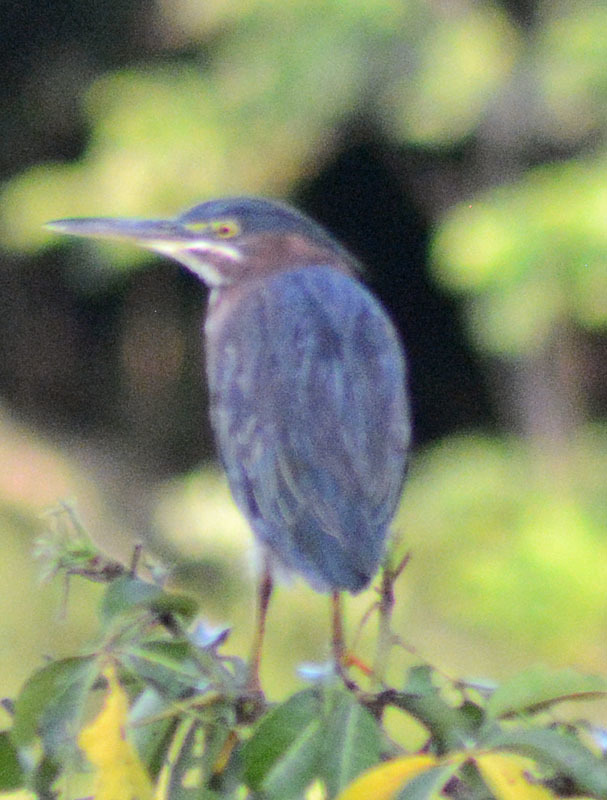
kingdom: Animalia
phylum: Chordata
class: Aves
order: Pelecaniformes
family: Ardeidae
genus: Butorides
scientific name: Butorides virescens
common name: Green heron
